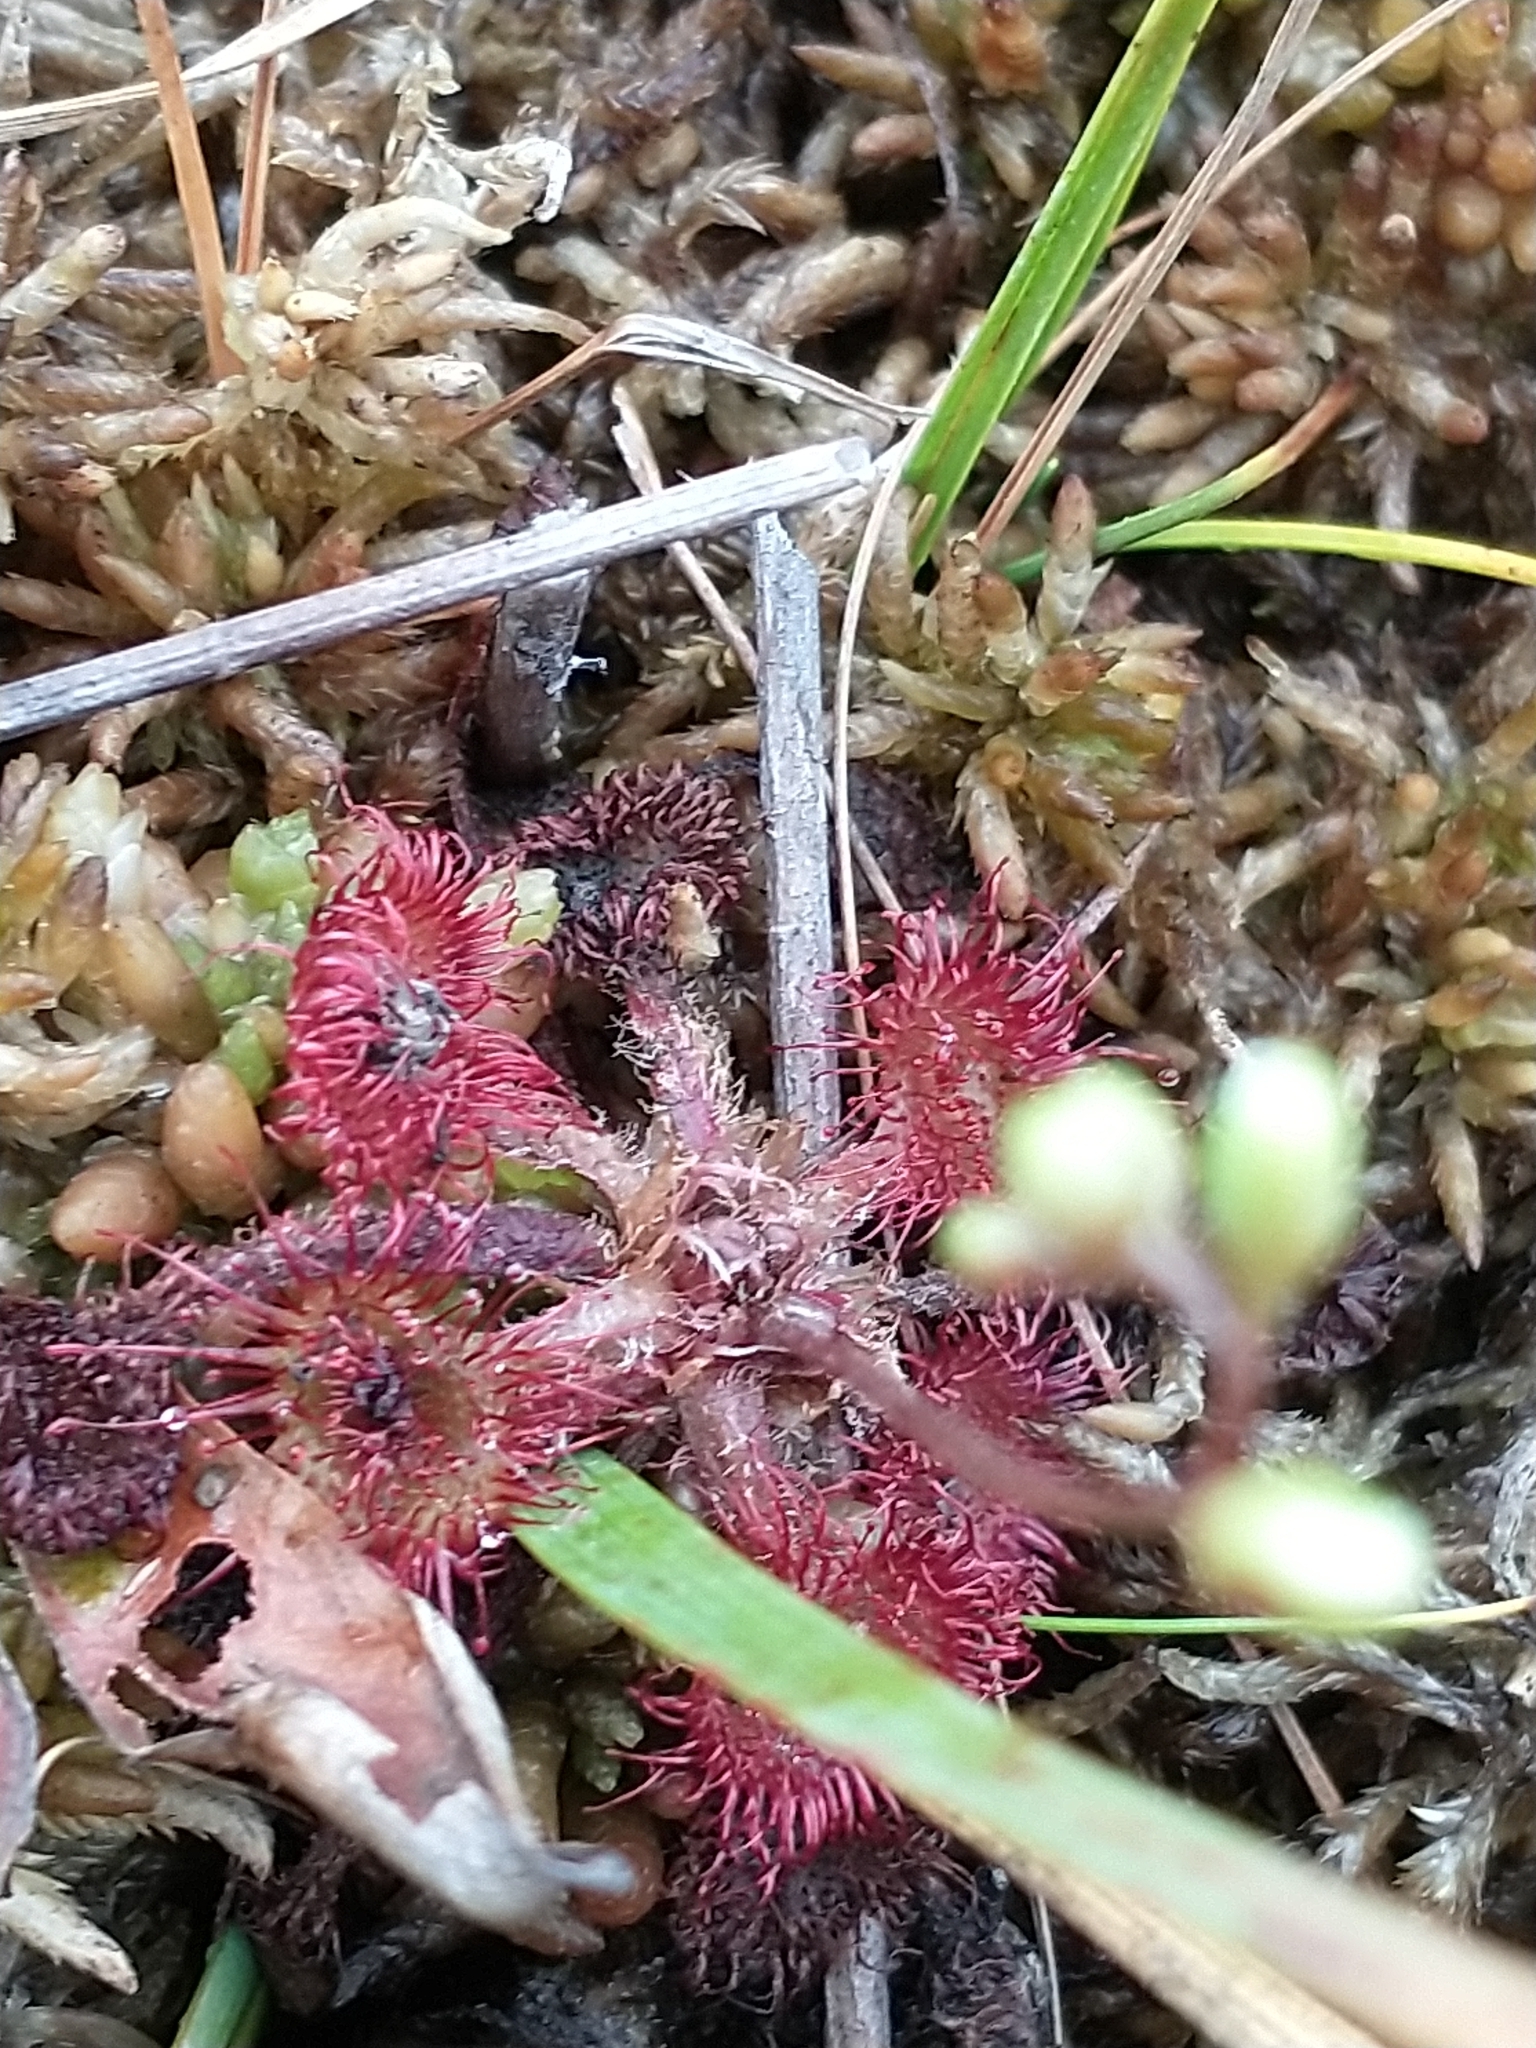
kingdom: Plantae
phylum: Tracheophyta
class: Magnoliopsida
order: Caryophyllales
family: Droseraceae
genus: Drosera
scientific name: Drosera rotundifolia
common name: Round-leaved sundew
